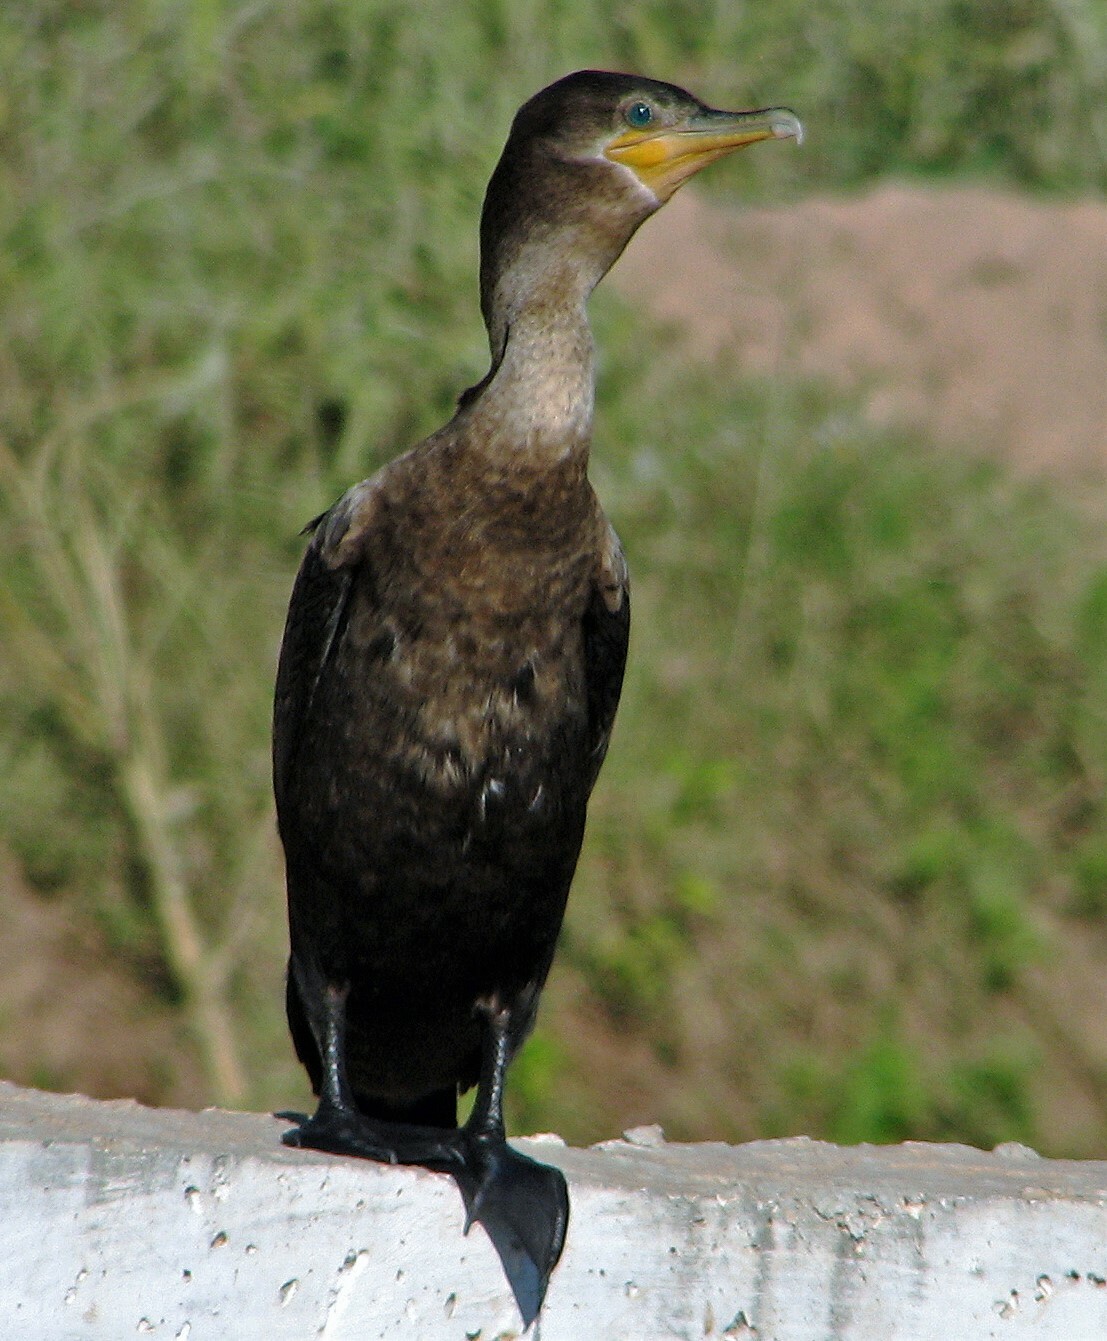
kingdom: Animalia
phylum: Chordata
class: Aves
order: Suliformes
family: Phalacrocoracidae
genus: Phalacrocorax
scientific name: Phalacrocorax brasilianus
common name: Neotropic cormorant
